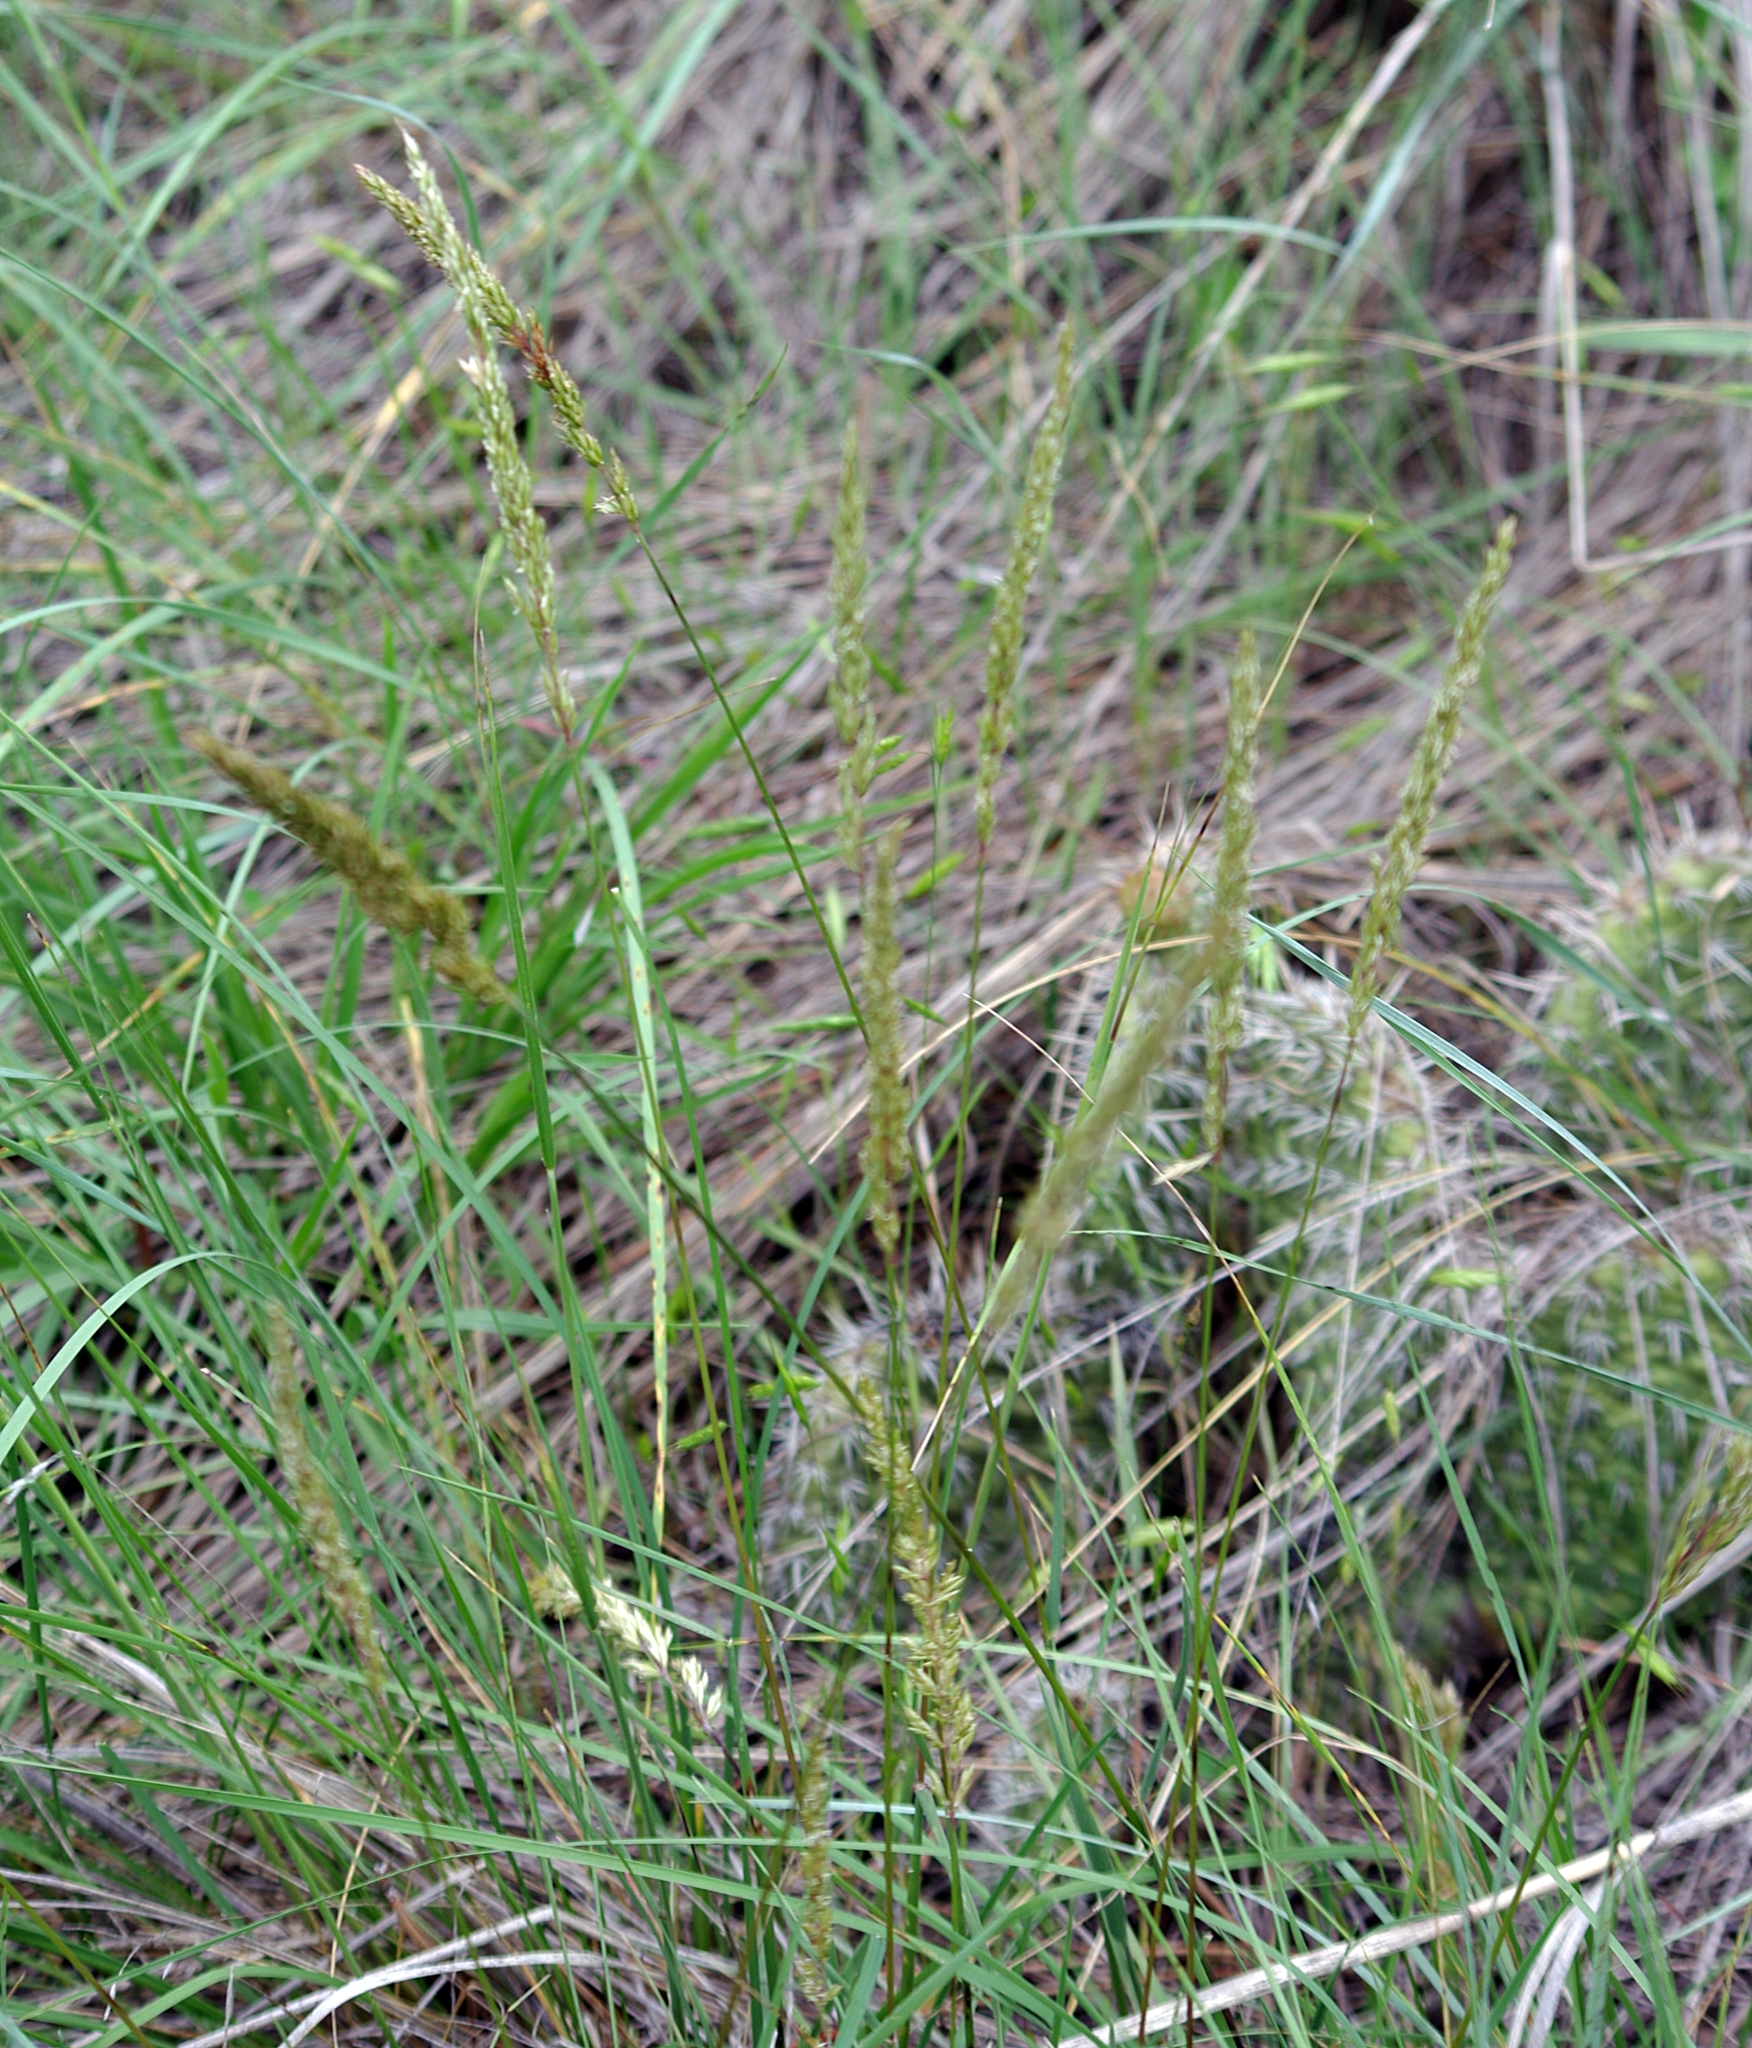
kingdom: Plantae
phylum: Tracheophyta
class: Liliopsida
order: Poales
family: Poaceae
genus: Koeleria
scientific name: Koeleria macrantha
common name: Crested hair-grass
